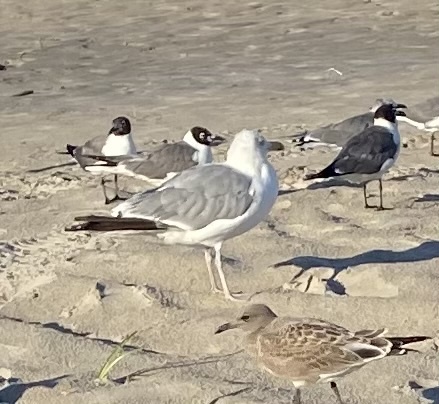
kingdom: Animalia
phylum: Chordata
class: Aves
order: Charadriiformes
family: Laridae
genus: Larus
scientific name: Larus argentatus
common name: Herring gull
